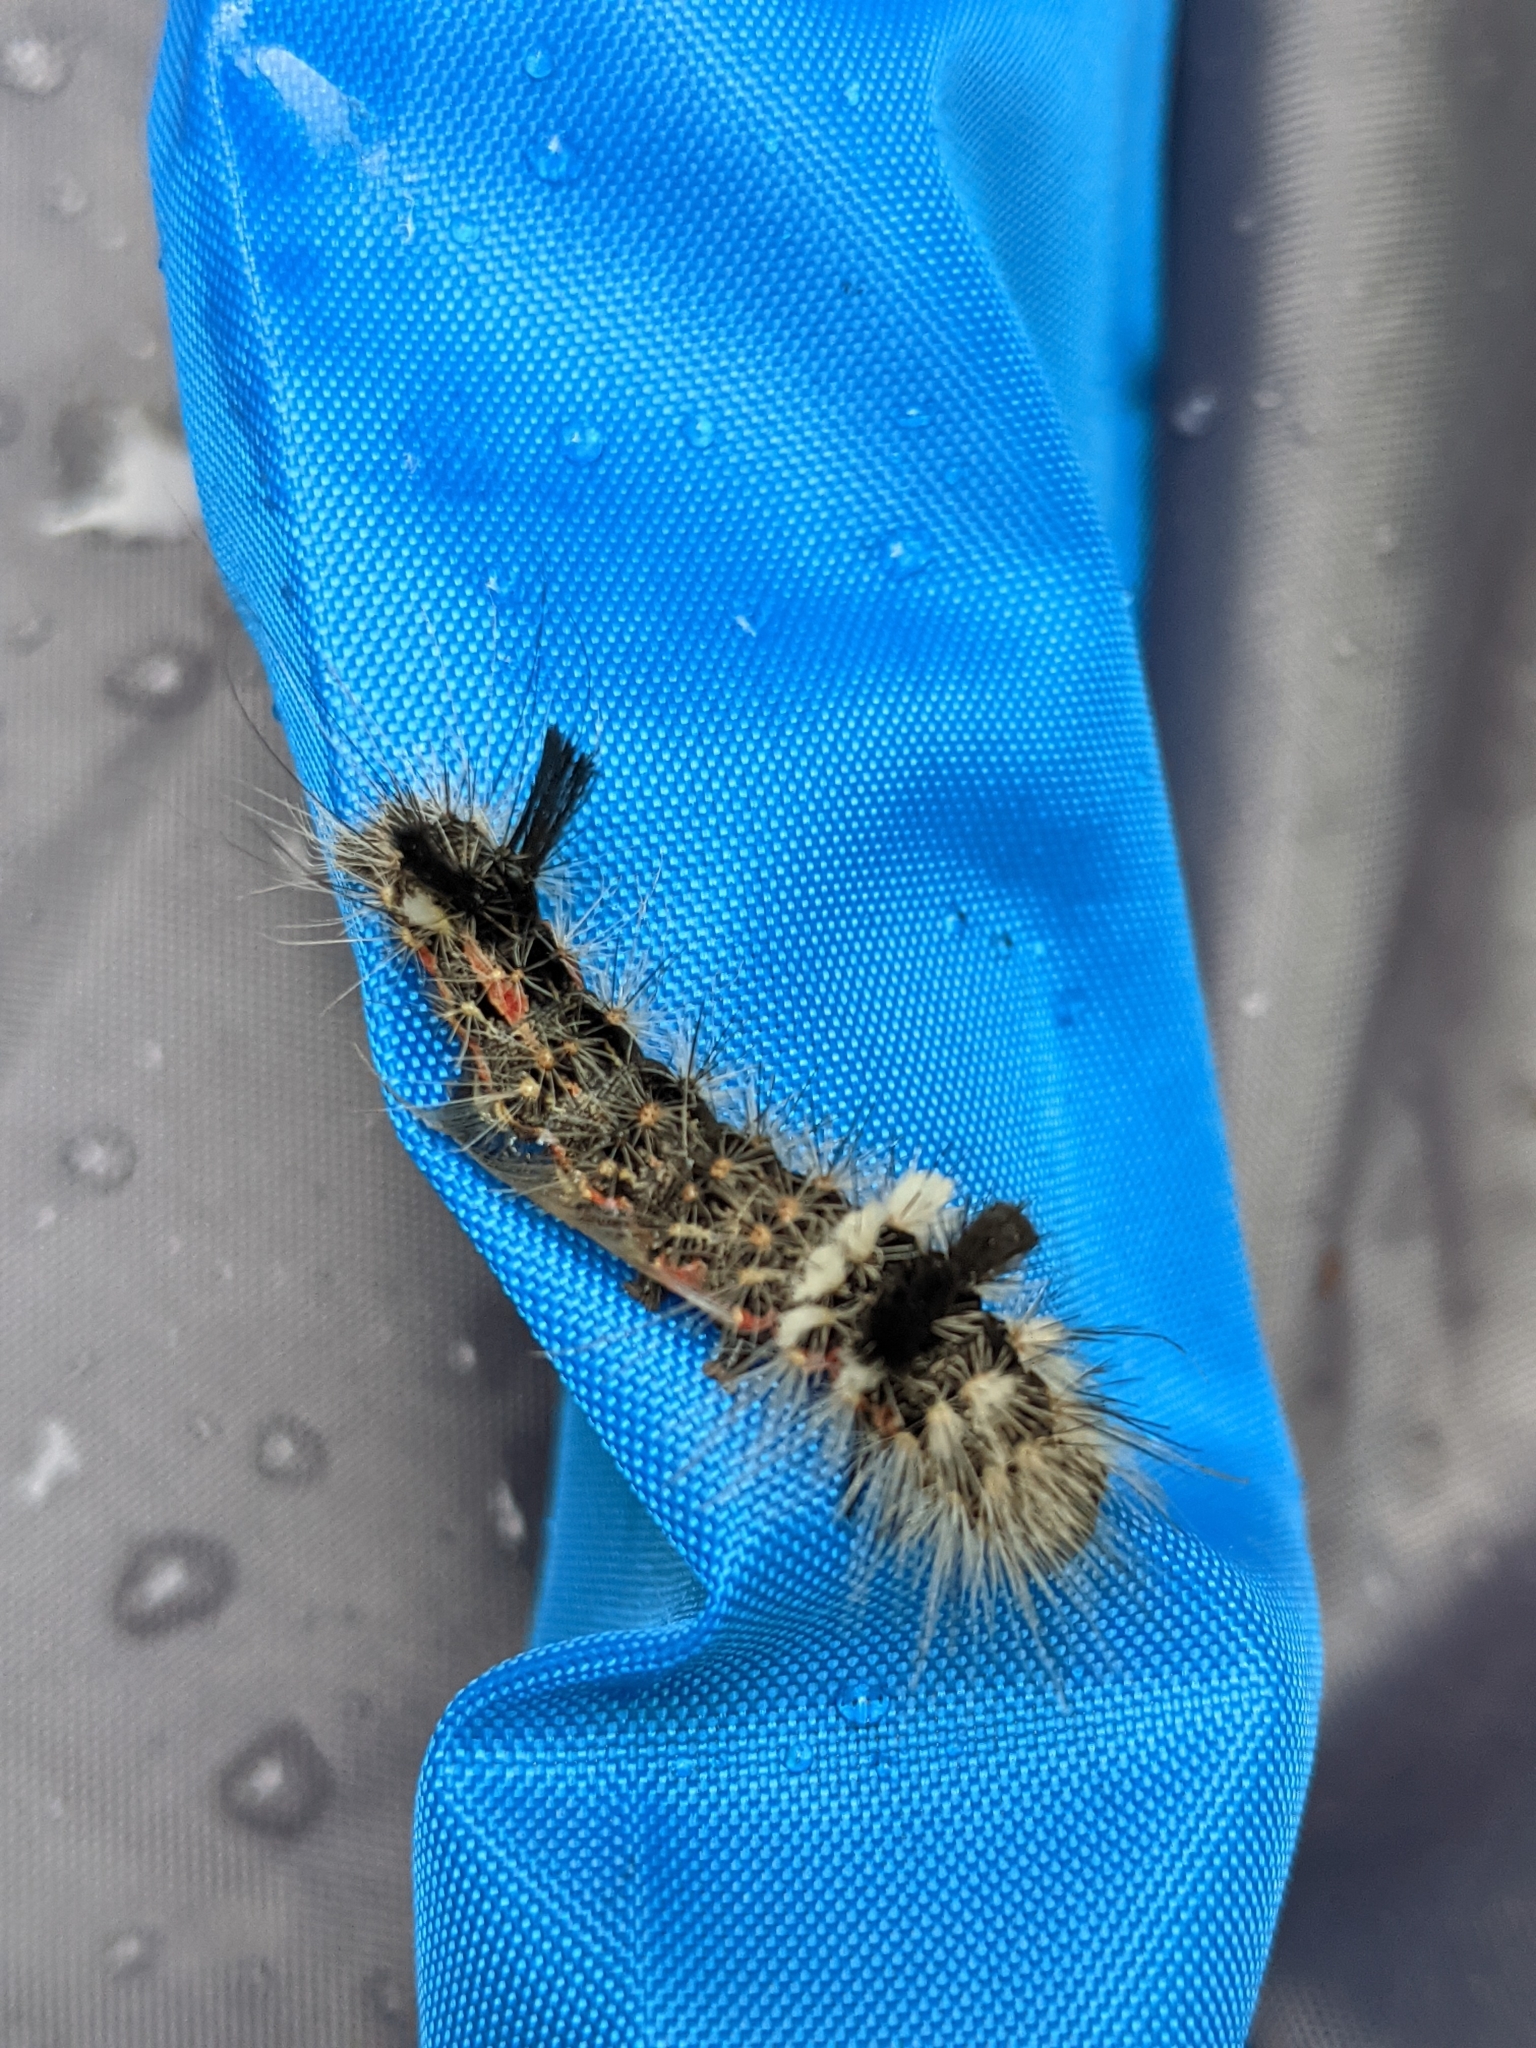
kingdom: Animalia
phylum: Arthropoda
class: Insecta
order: Lepidoptera
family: Noctuidae
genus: Acronicta
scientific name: Acronicta impleta
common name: Powdered dagger
